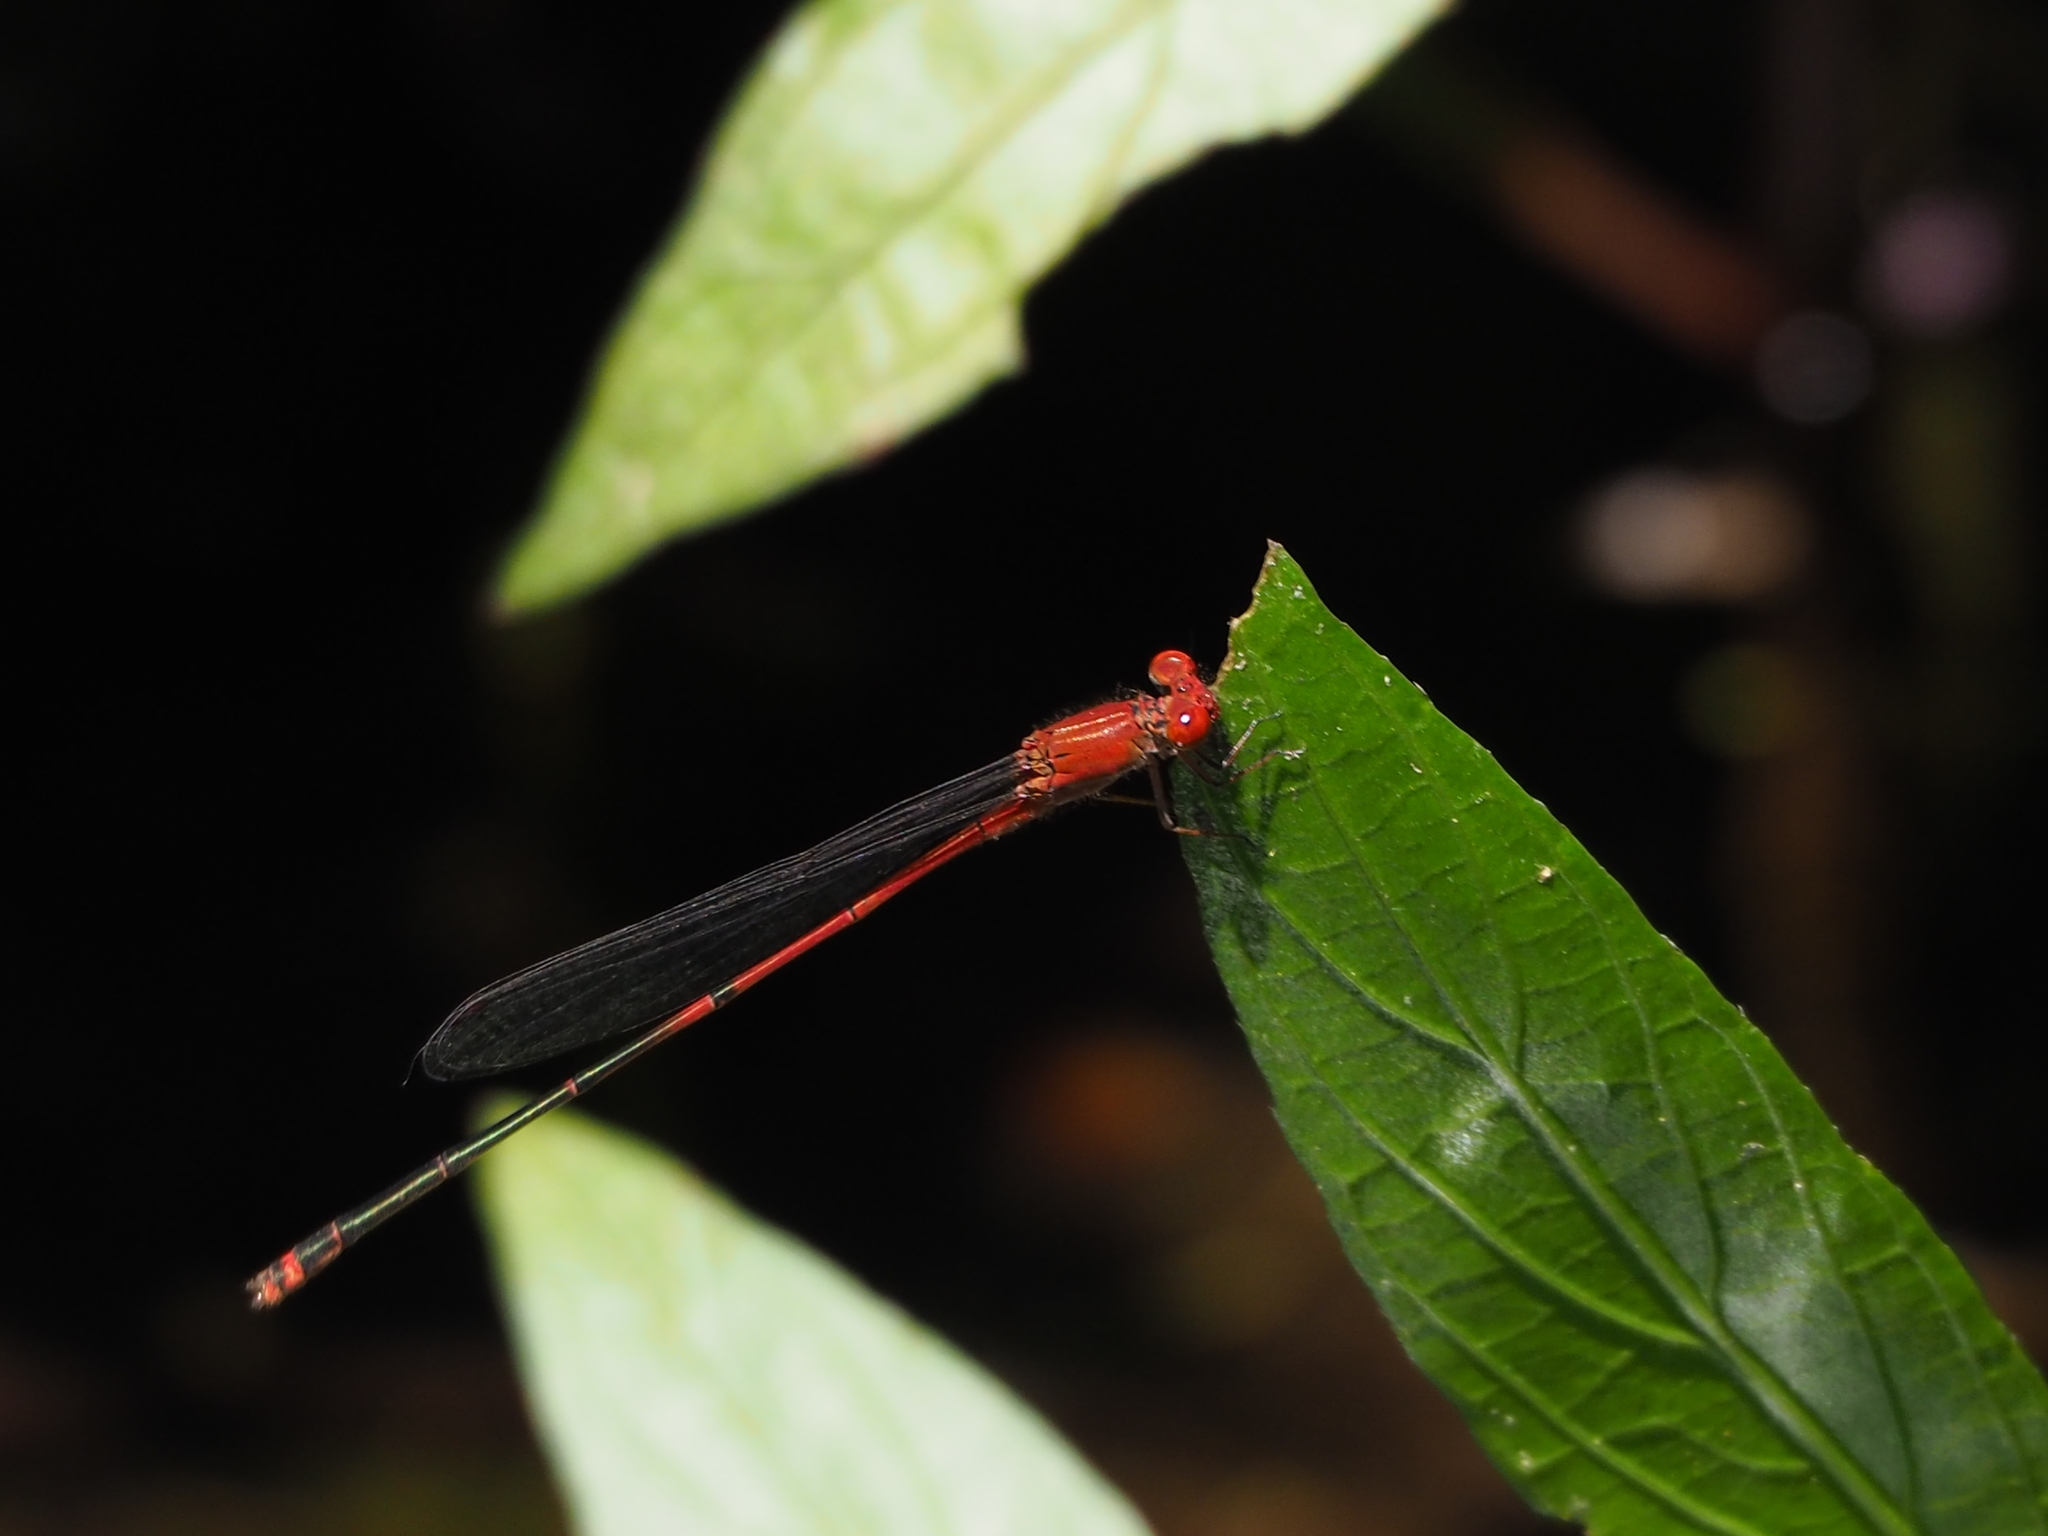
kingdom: Animalia
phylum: Arthropoda
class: Insecta
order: Odonata
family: Coenagrionidae
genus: Pseudagrion
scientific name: Pseudagrion pilidorsum
